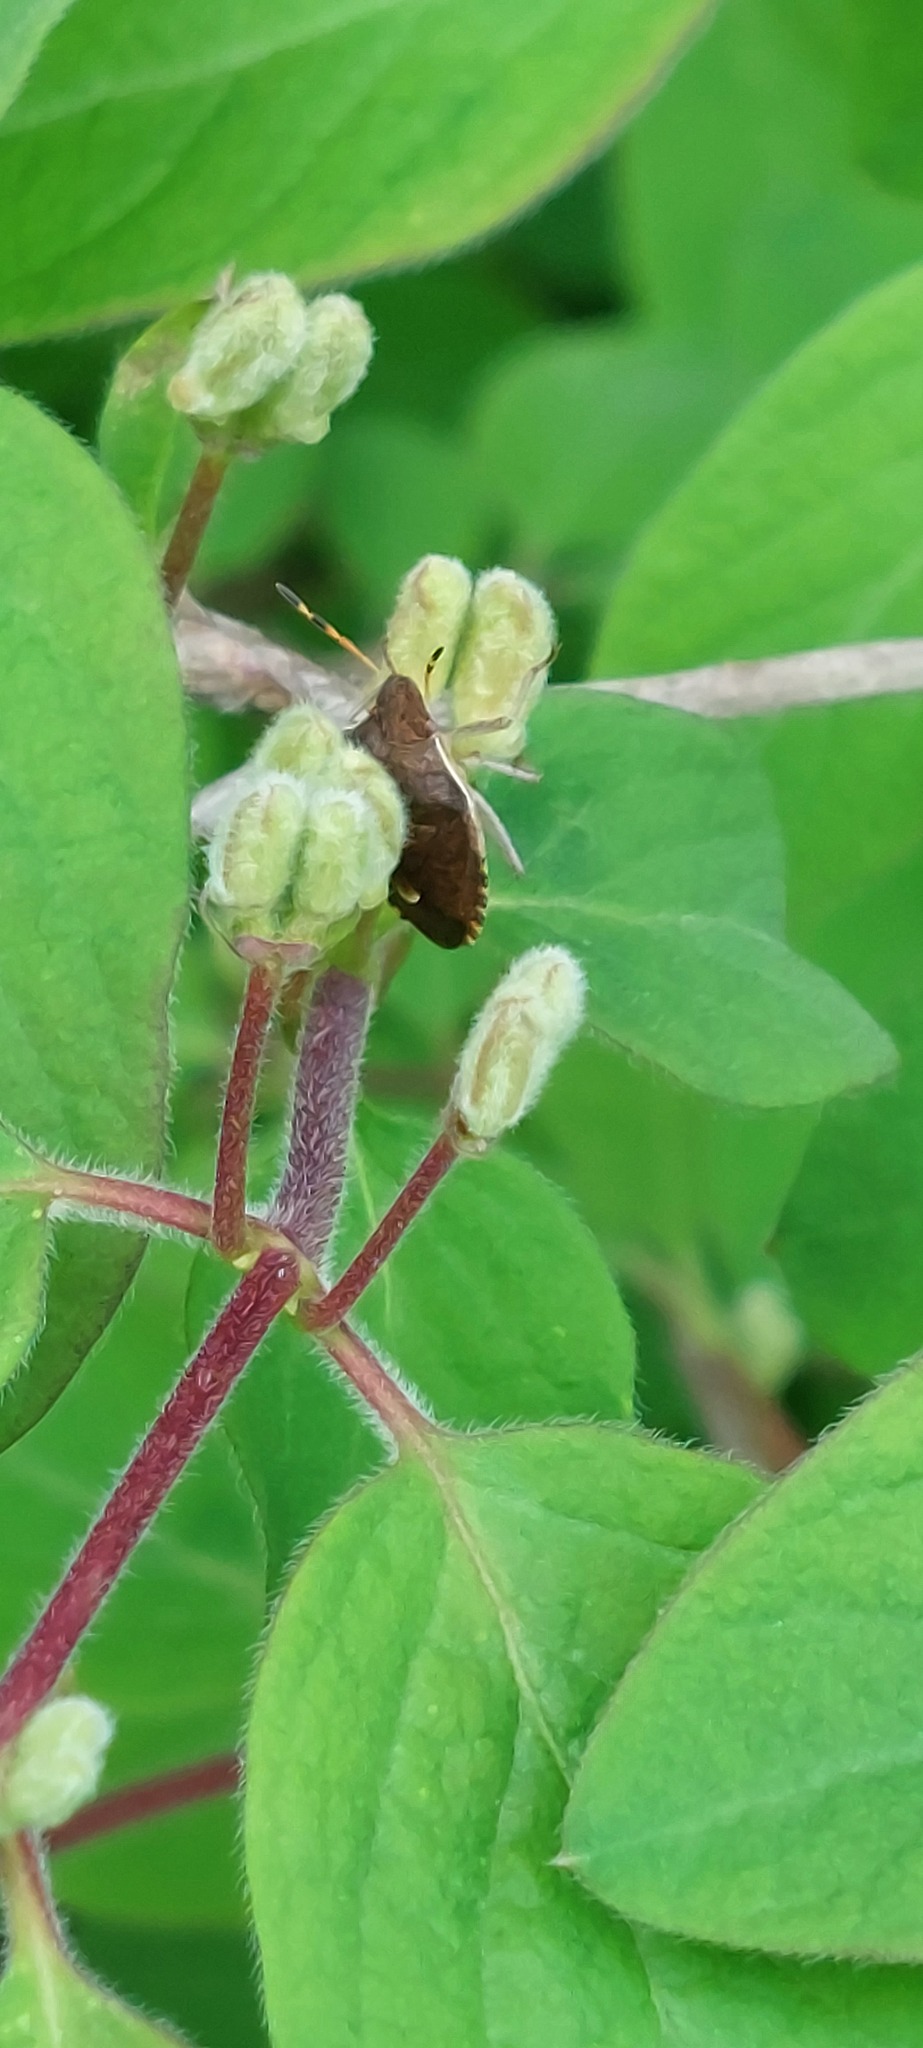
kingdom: Animalia
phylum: Arthropoda
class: Insecta
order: Hemiptera
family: Pentatomidae
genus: Holcostethus
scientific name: Holcostethus strictus
